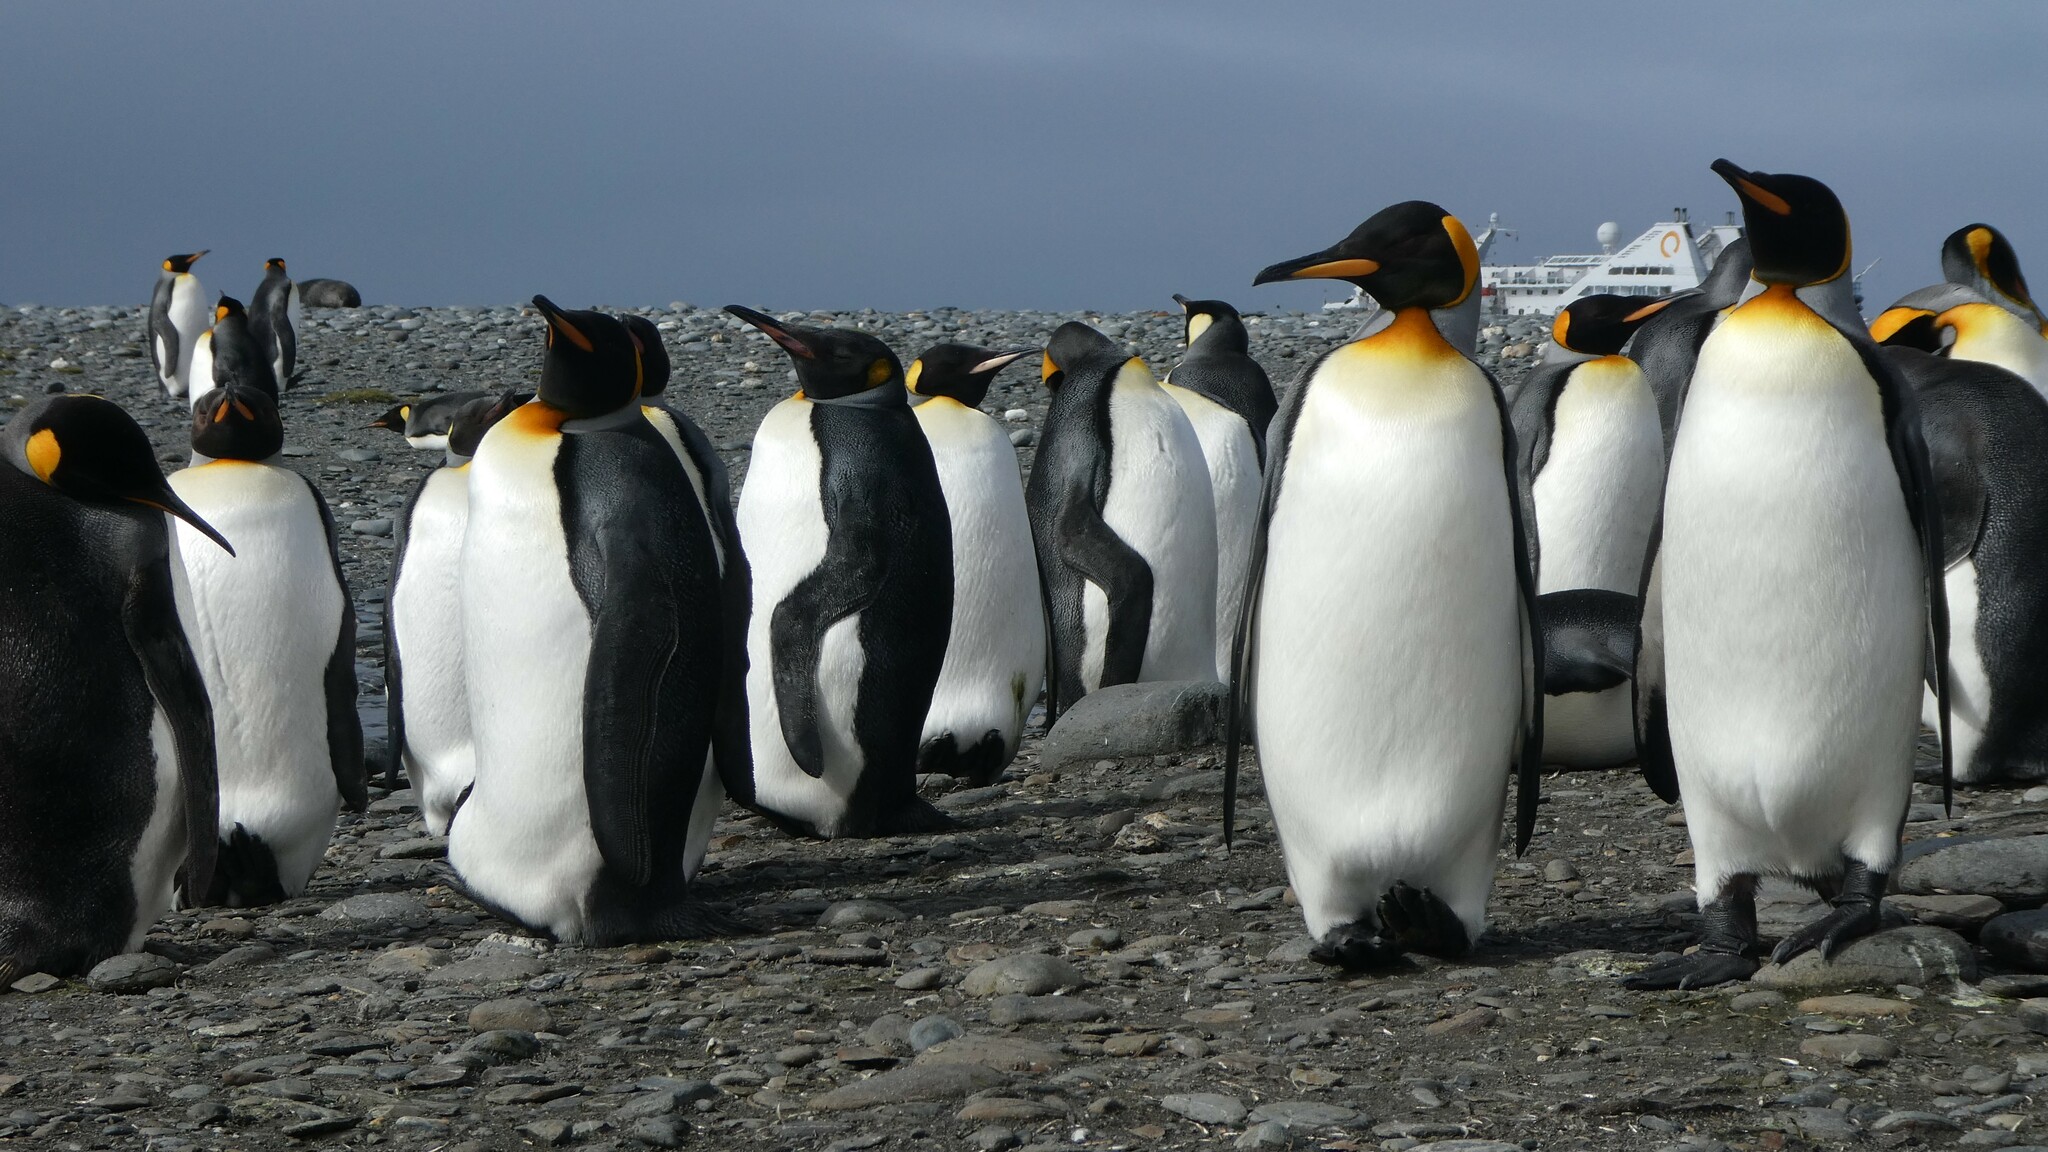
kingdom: Animalia
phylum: Chordata
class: Aves
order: Sphenisciformes
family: Spheniscidae
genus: Aptenodytes
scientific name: Aptenodytes patagonicus
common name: King penguin
